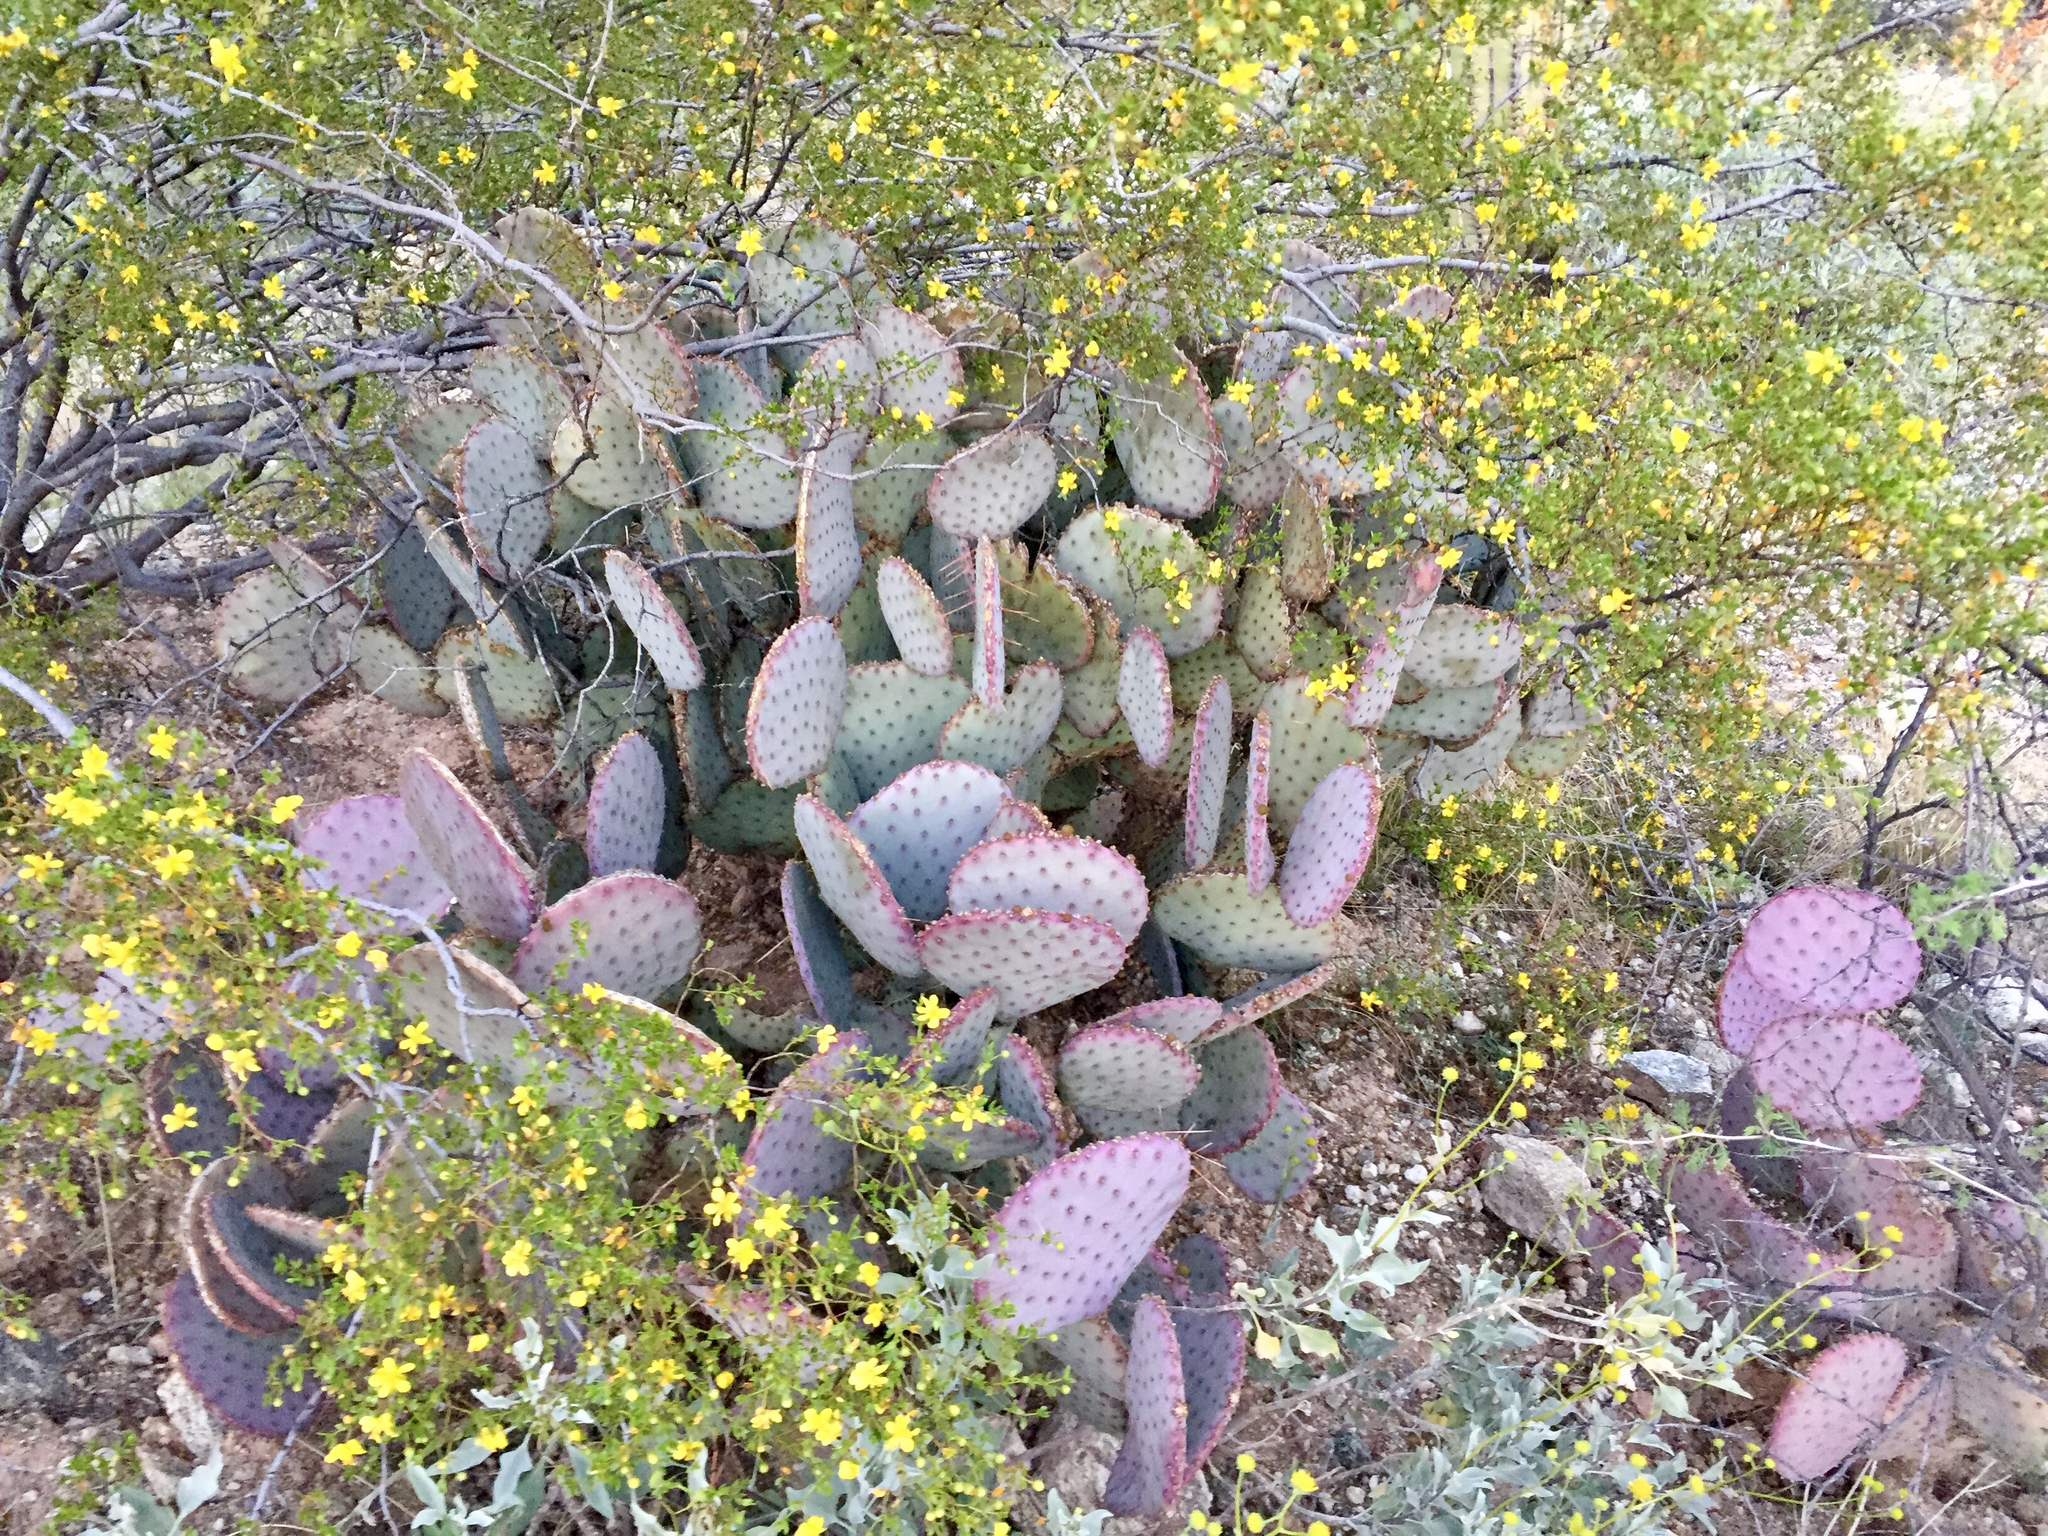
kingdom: Plantae
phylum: Tracheophyta
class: Magnoliopsida
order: Caryophyllales
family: Cactaceae
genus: Opuntia
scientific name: Opuntia gosseliniana
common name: Violet prickly-pear
